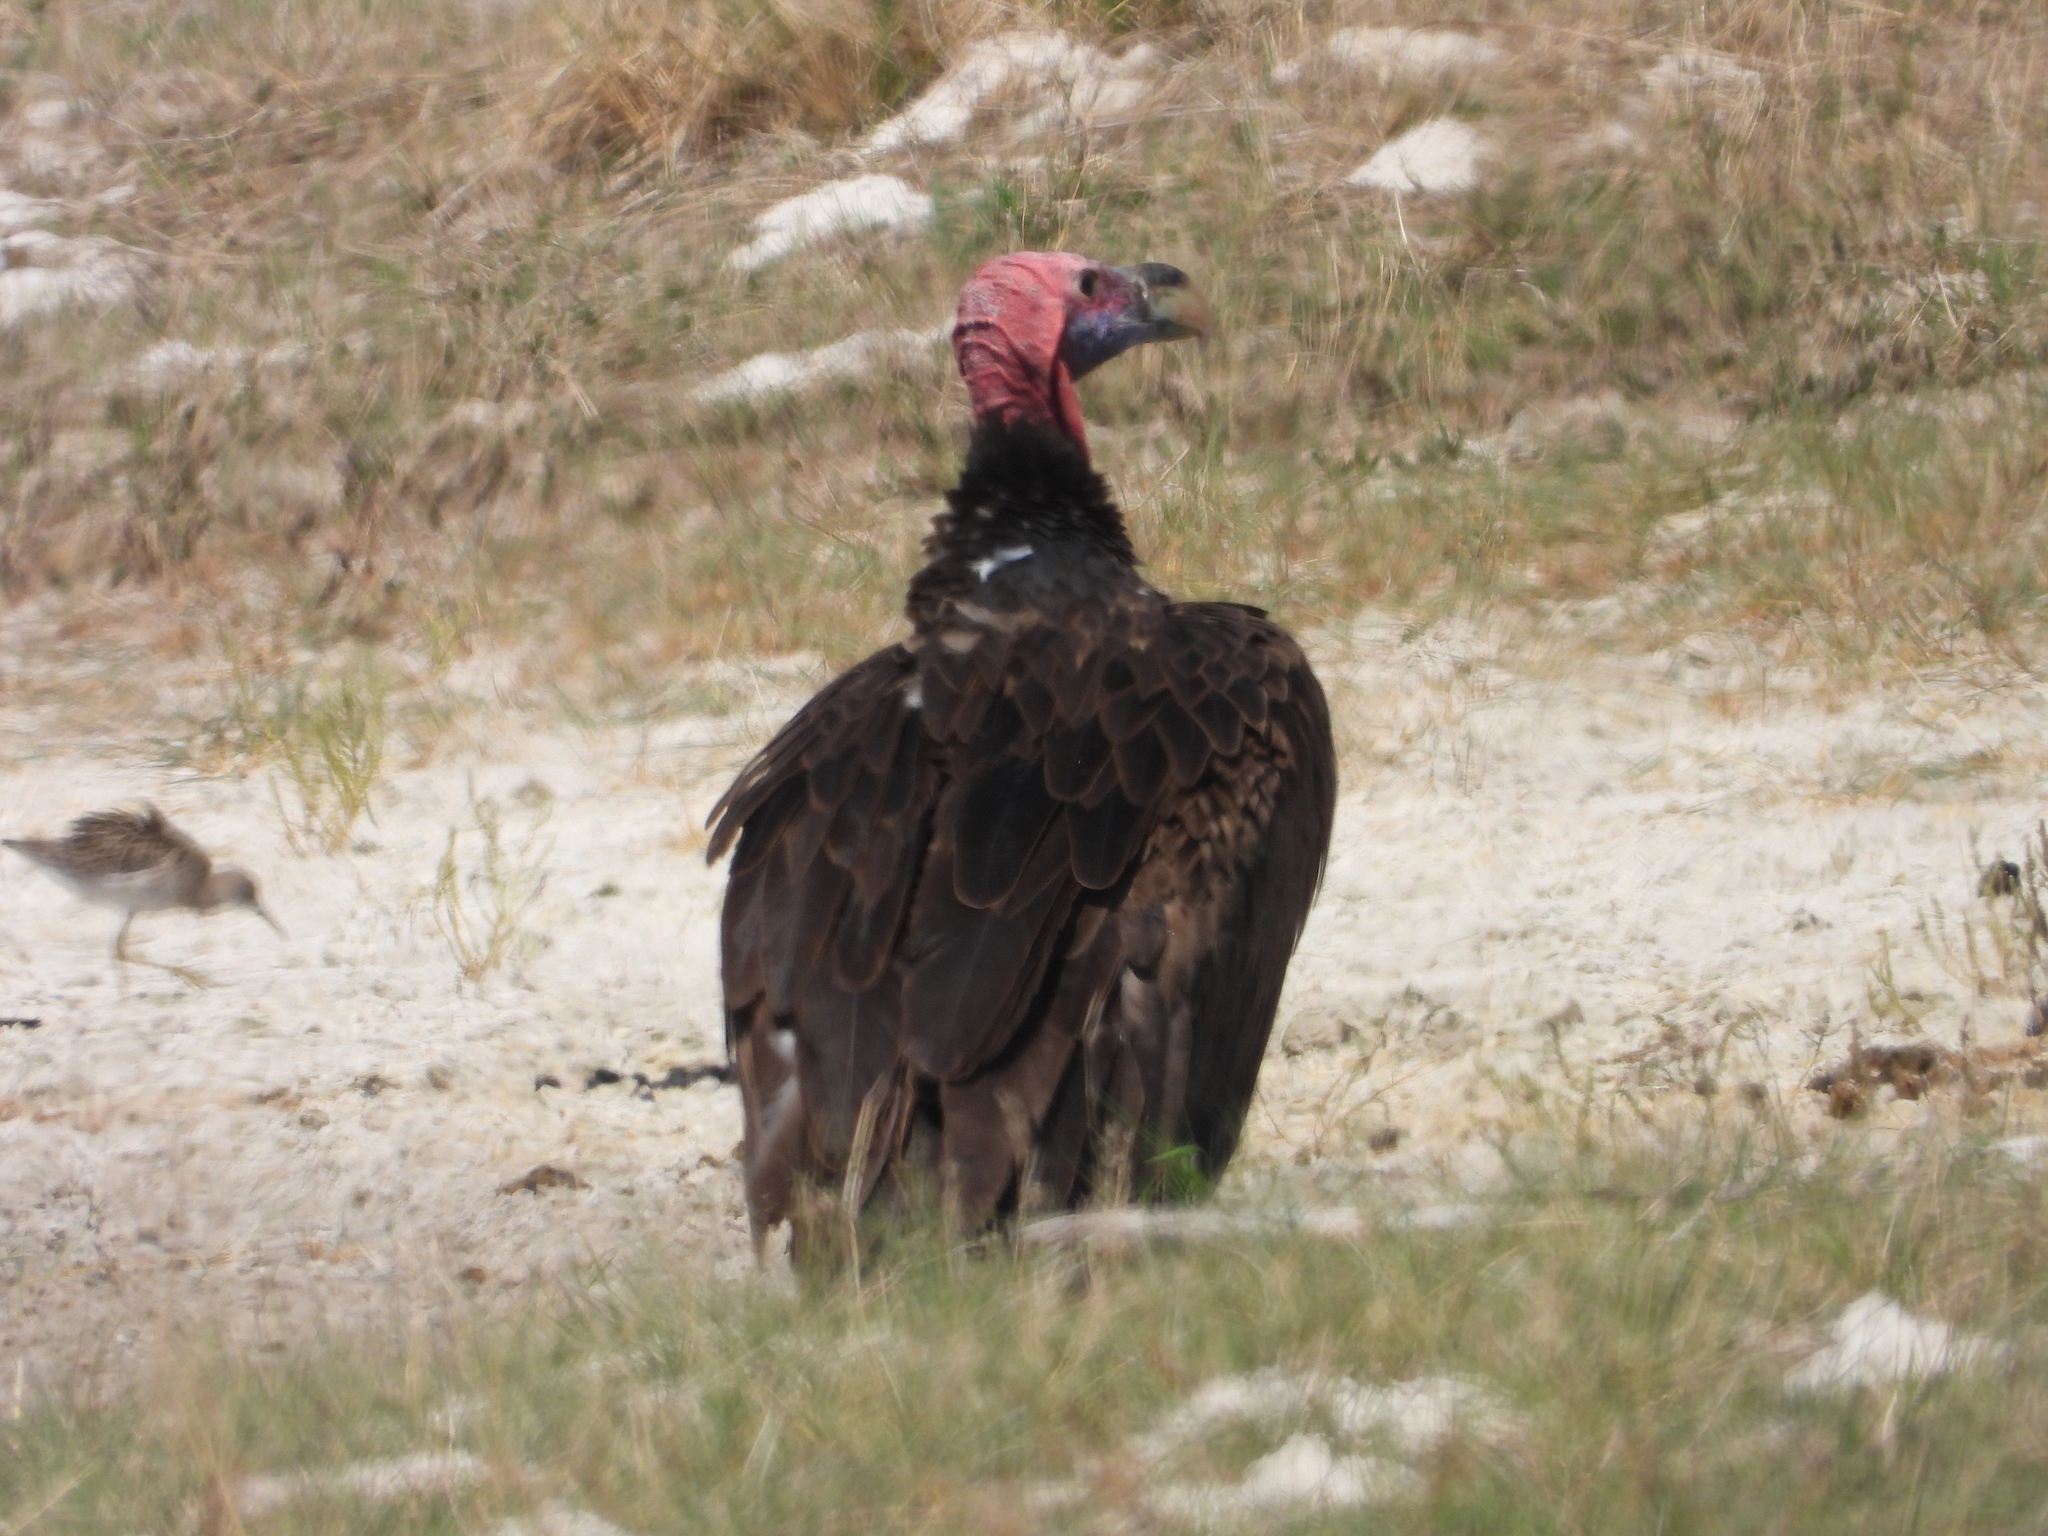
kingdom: Animalia
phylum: Chordata
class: Aves
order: Accipitriformes
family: Accipitridae
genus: Torgos
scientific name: Torgos tracheliotos
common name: Lappet-faced vulture
